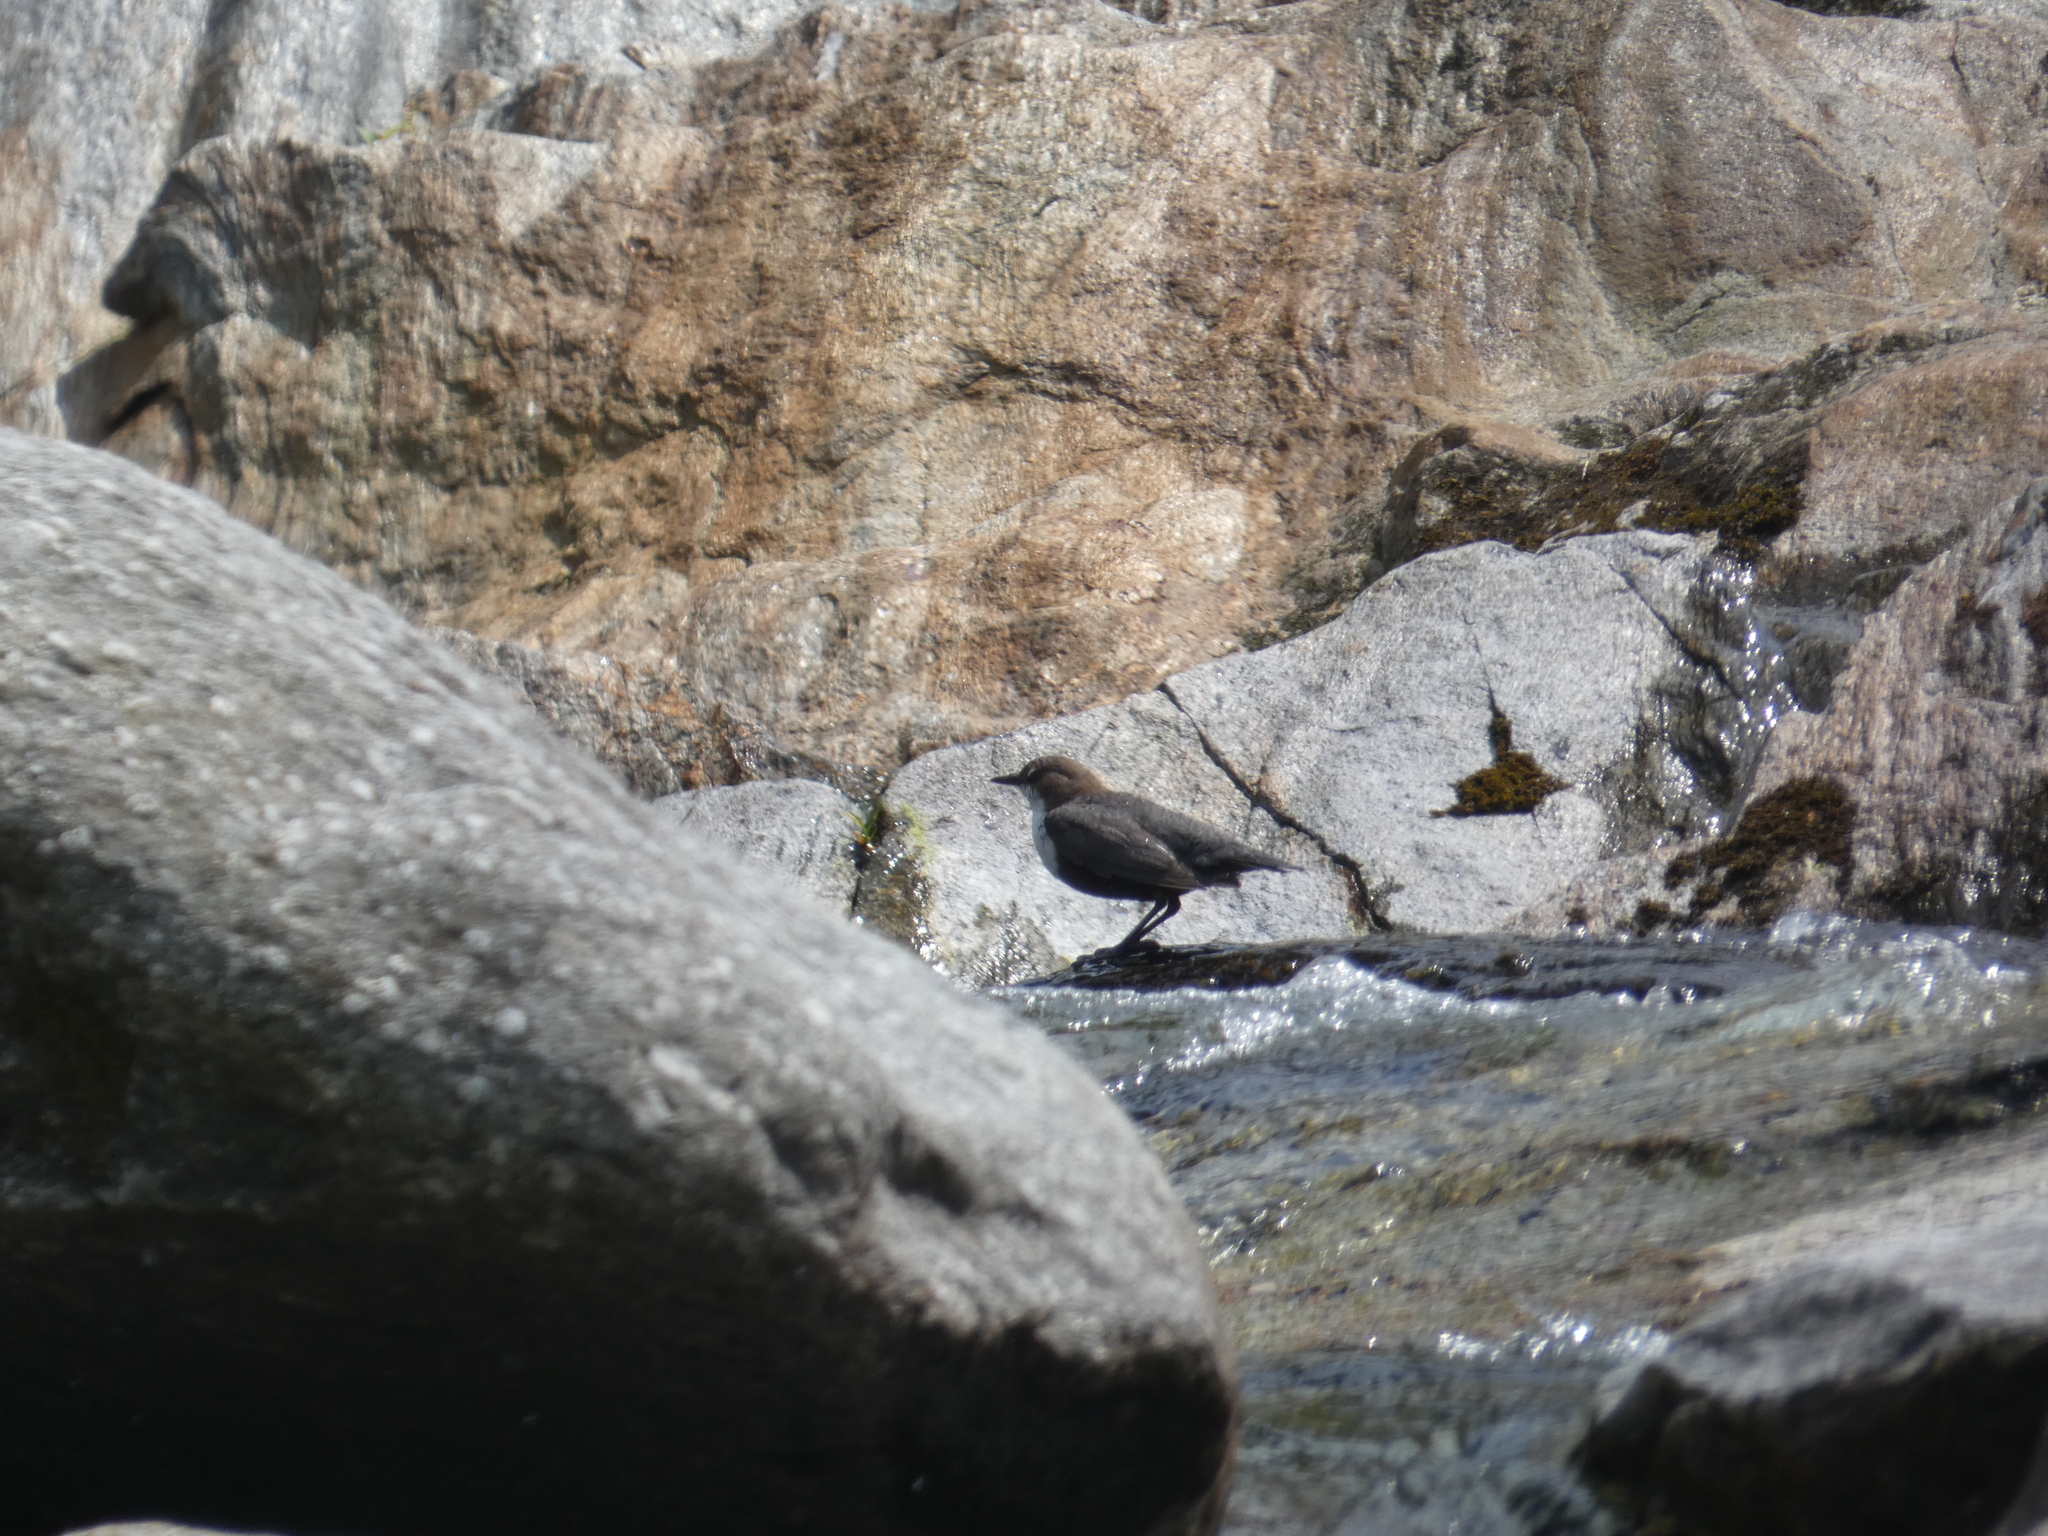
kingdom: Animalia
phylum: Chordata
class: Aves
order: Passeriformes
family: Cinclidae
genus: Cinclus
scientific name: Cinclus cinclus
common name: White-throated dipper
